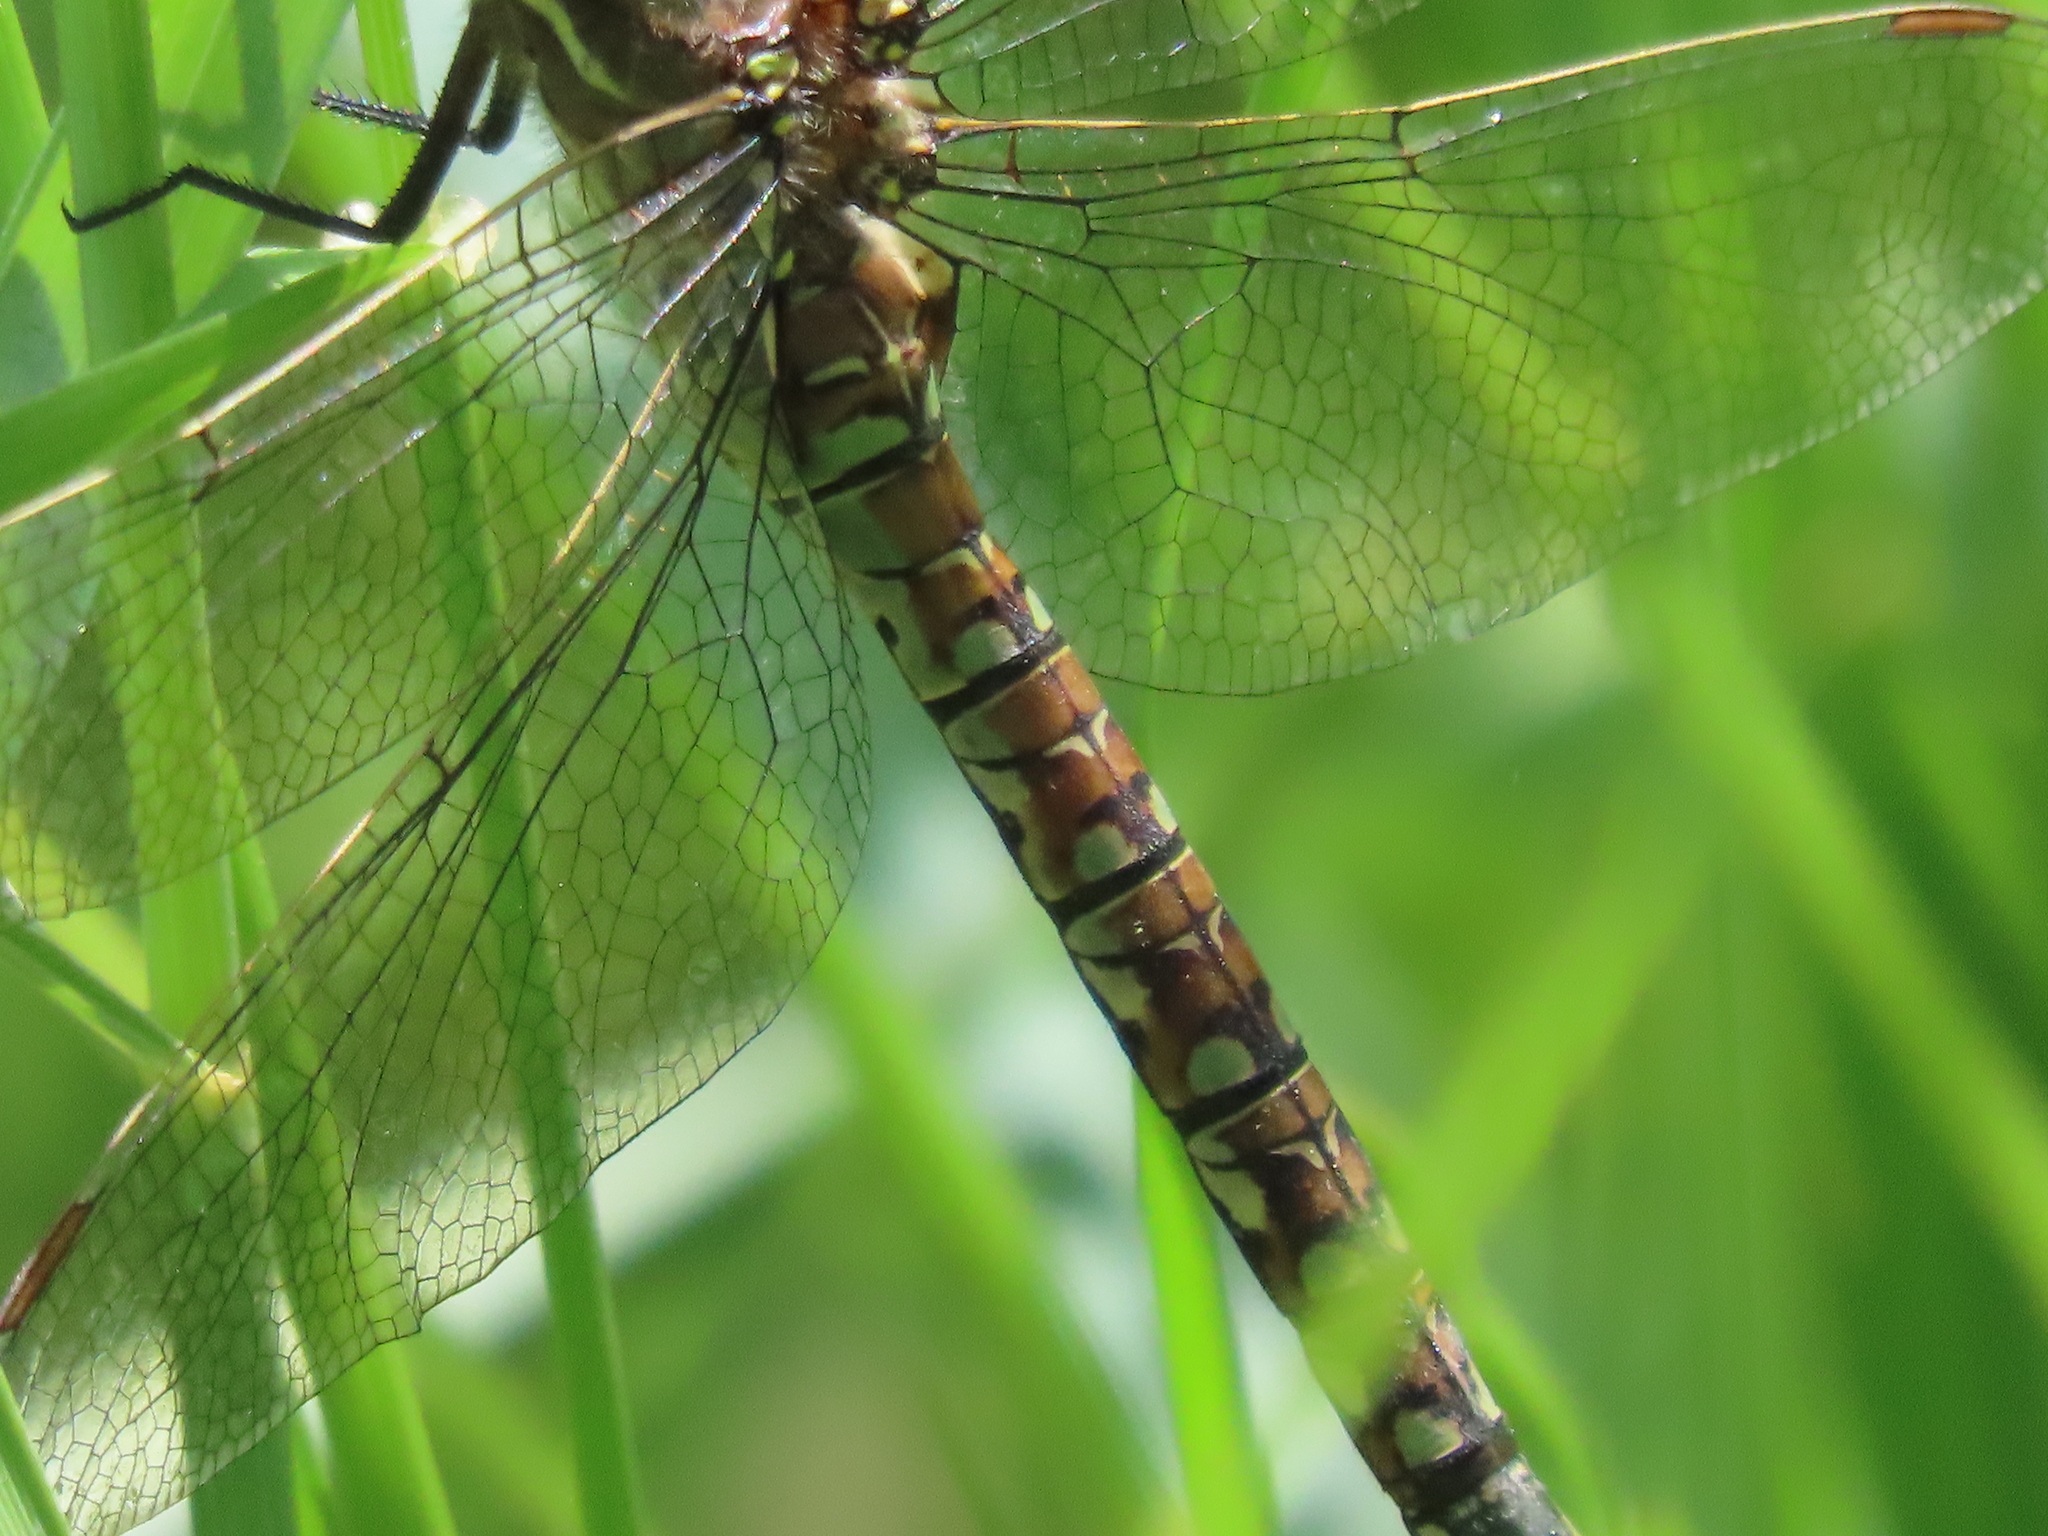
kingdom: Animalia
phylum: Arthropoda
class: Insecta
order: Odonata
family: Aeshnidae
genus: Rhionaeschna
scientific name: Rhionaeschna californica
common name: California darner
